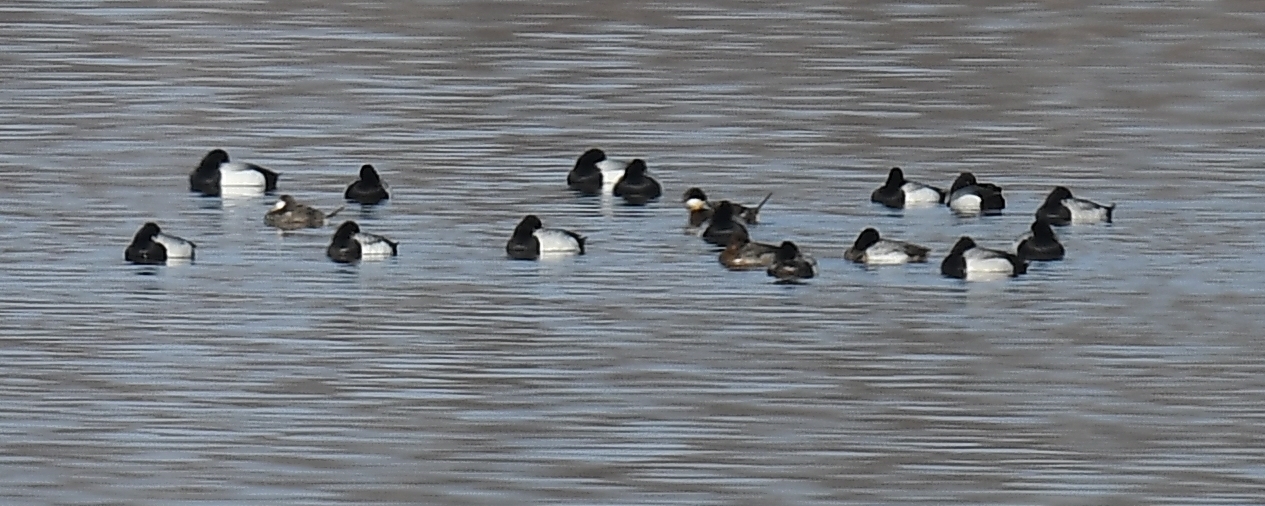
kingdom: Animalia
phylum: Chordata
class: Aves
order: Anseriformes
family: Anatidae
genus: Aythya
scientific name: Aythya affinis
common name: Lesser scaup
